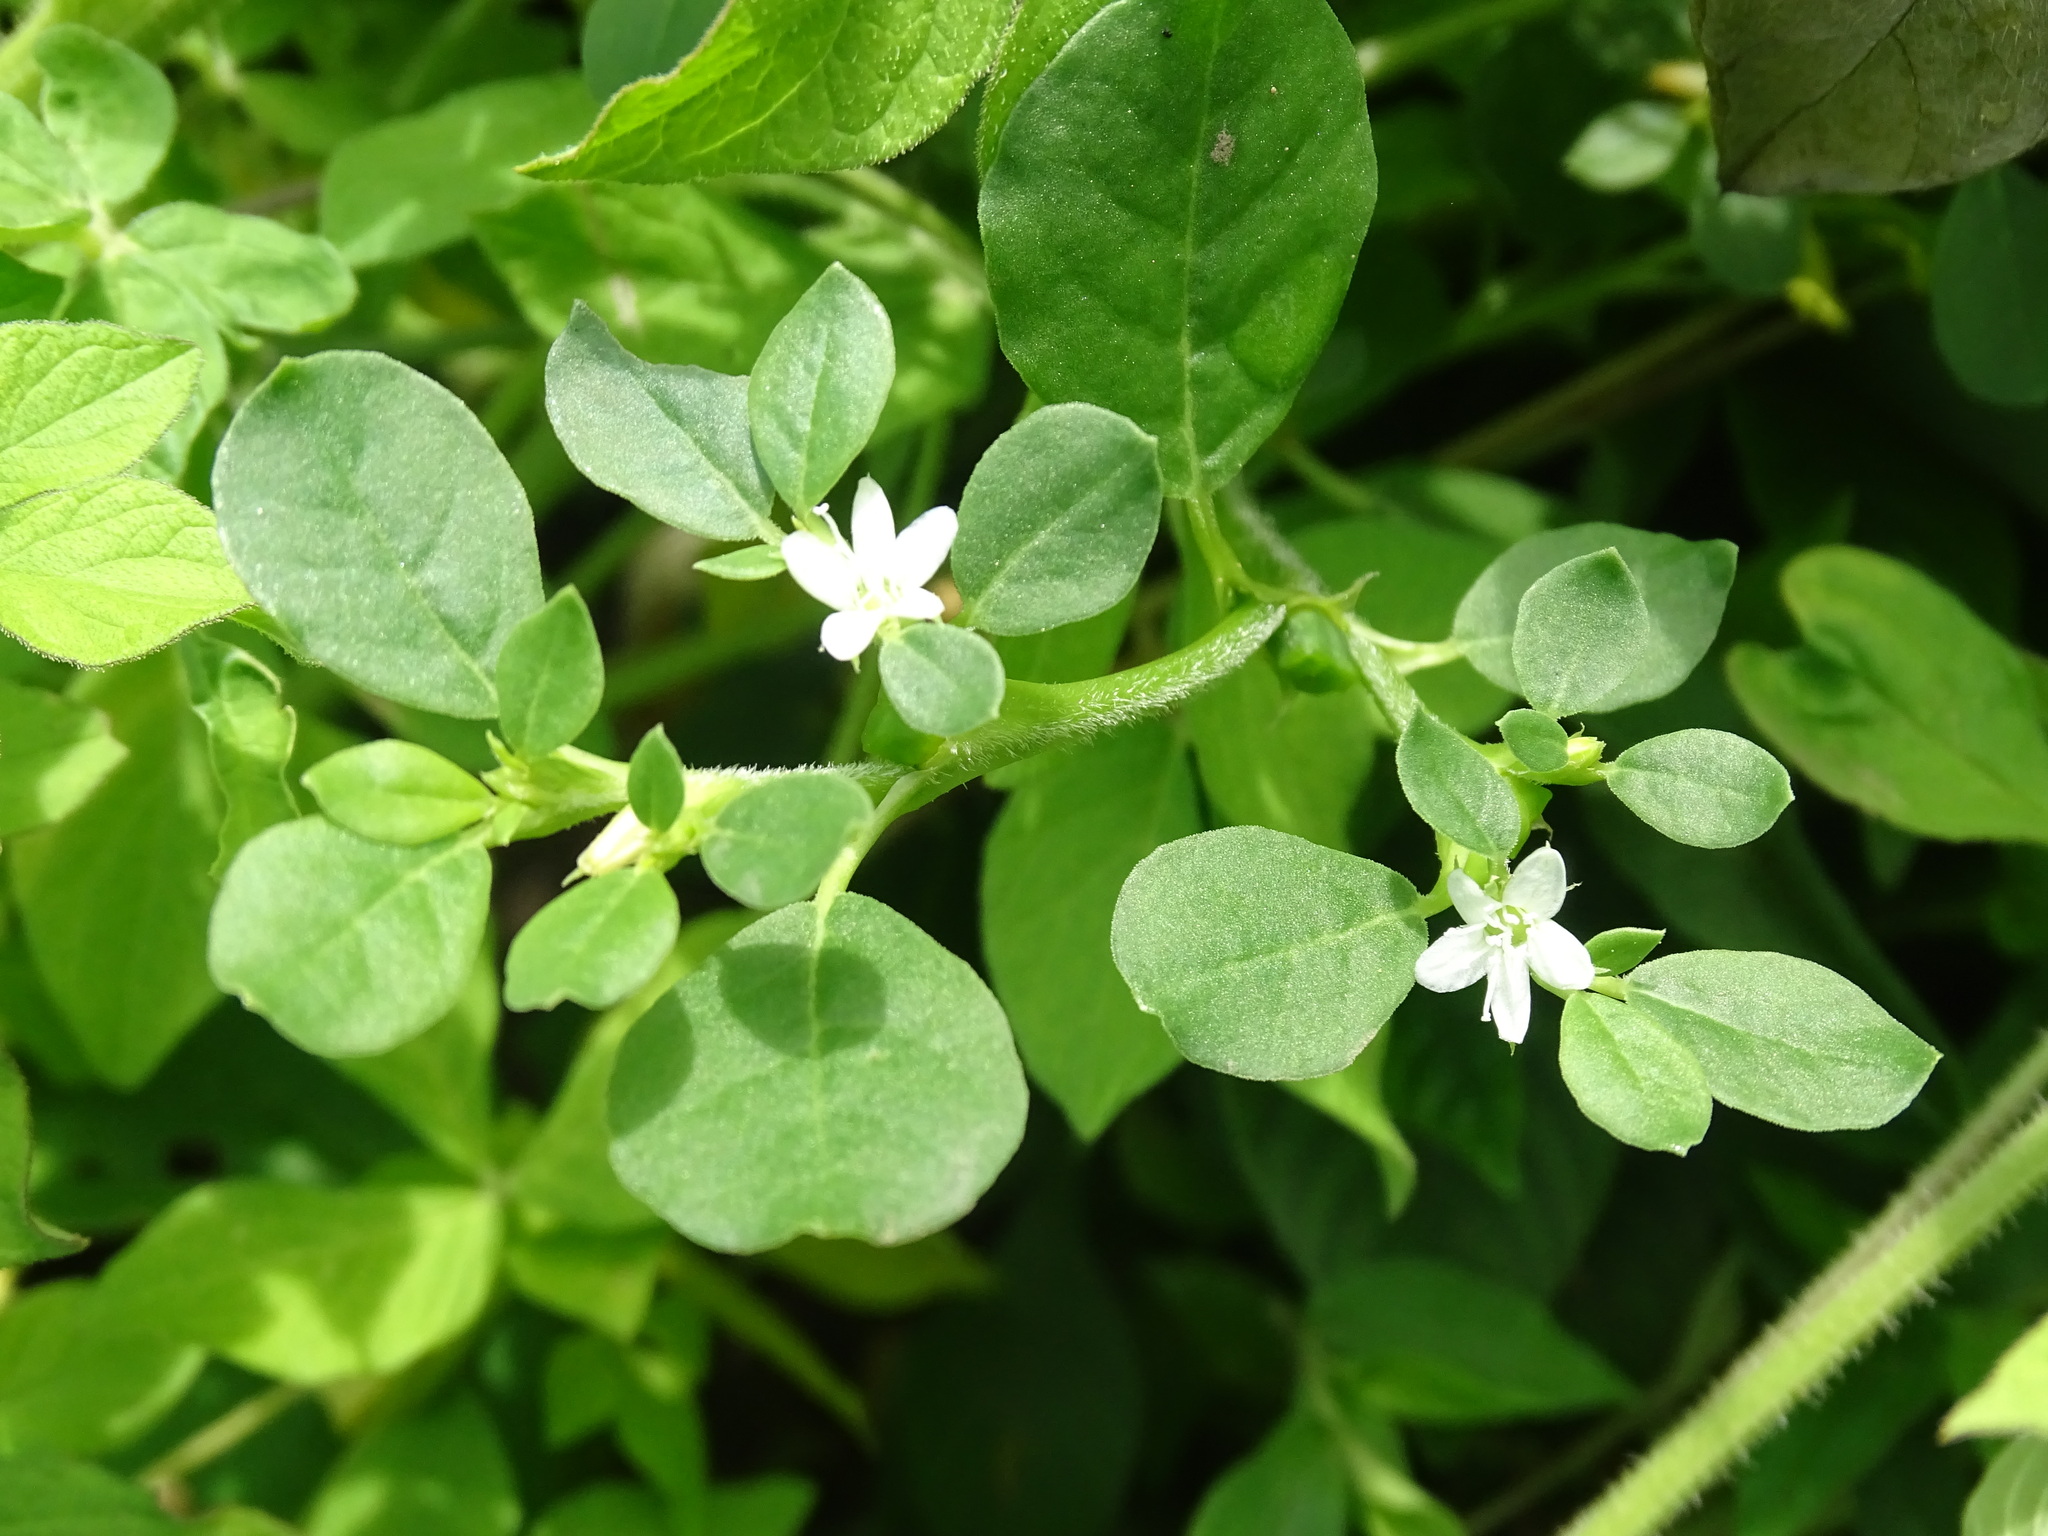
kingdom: Plantae
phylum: Tracheophyta
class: Magnoliopsida
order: Caryophyllales
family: Aizoaceae
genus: Trianthema
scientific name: Trianthema portulacastrum
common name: Desert horsepurslane
